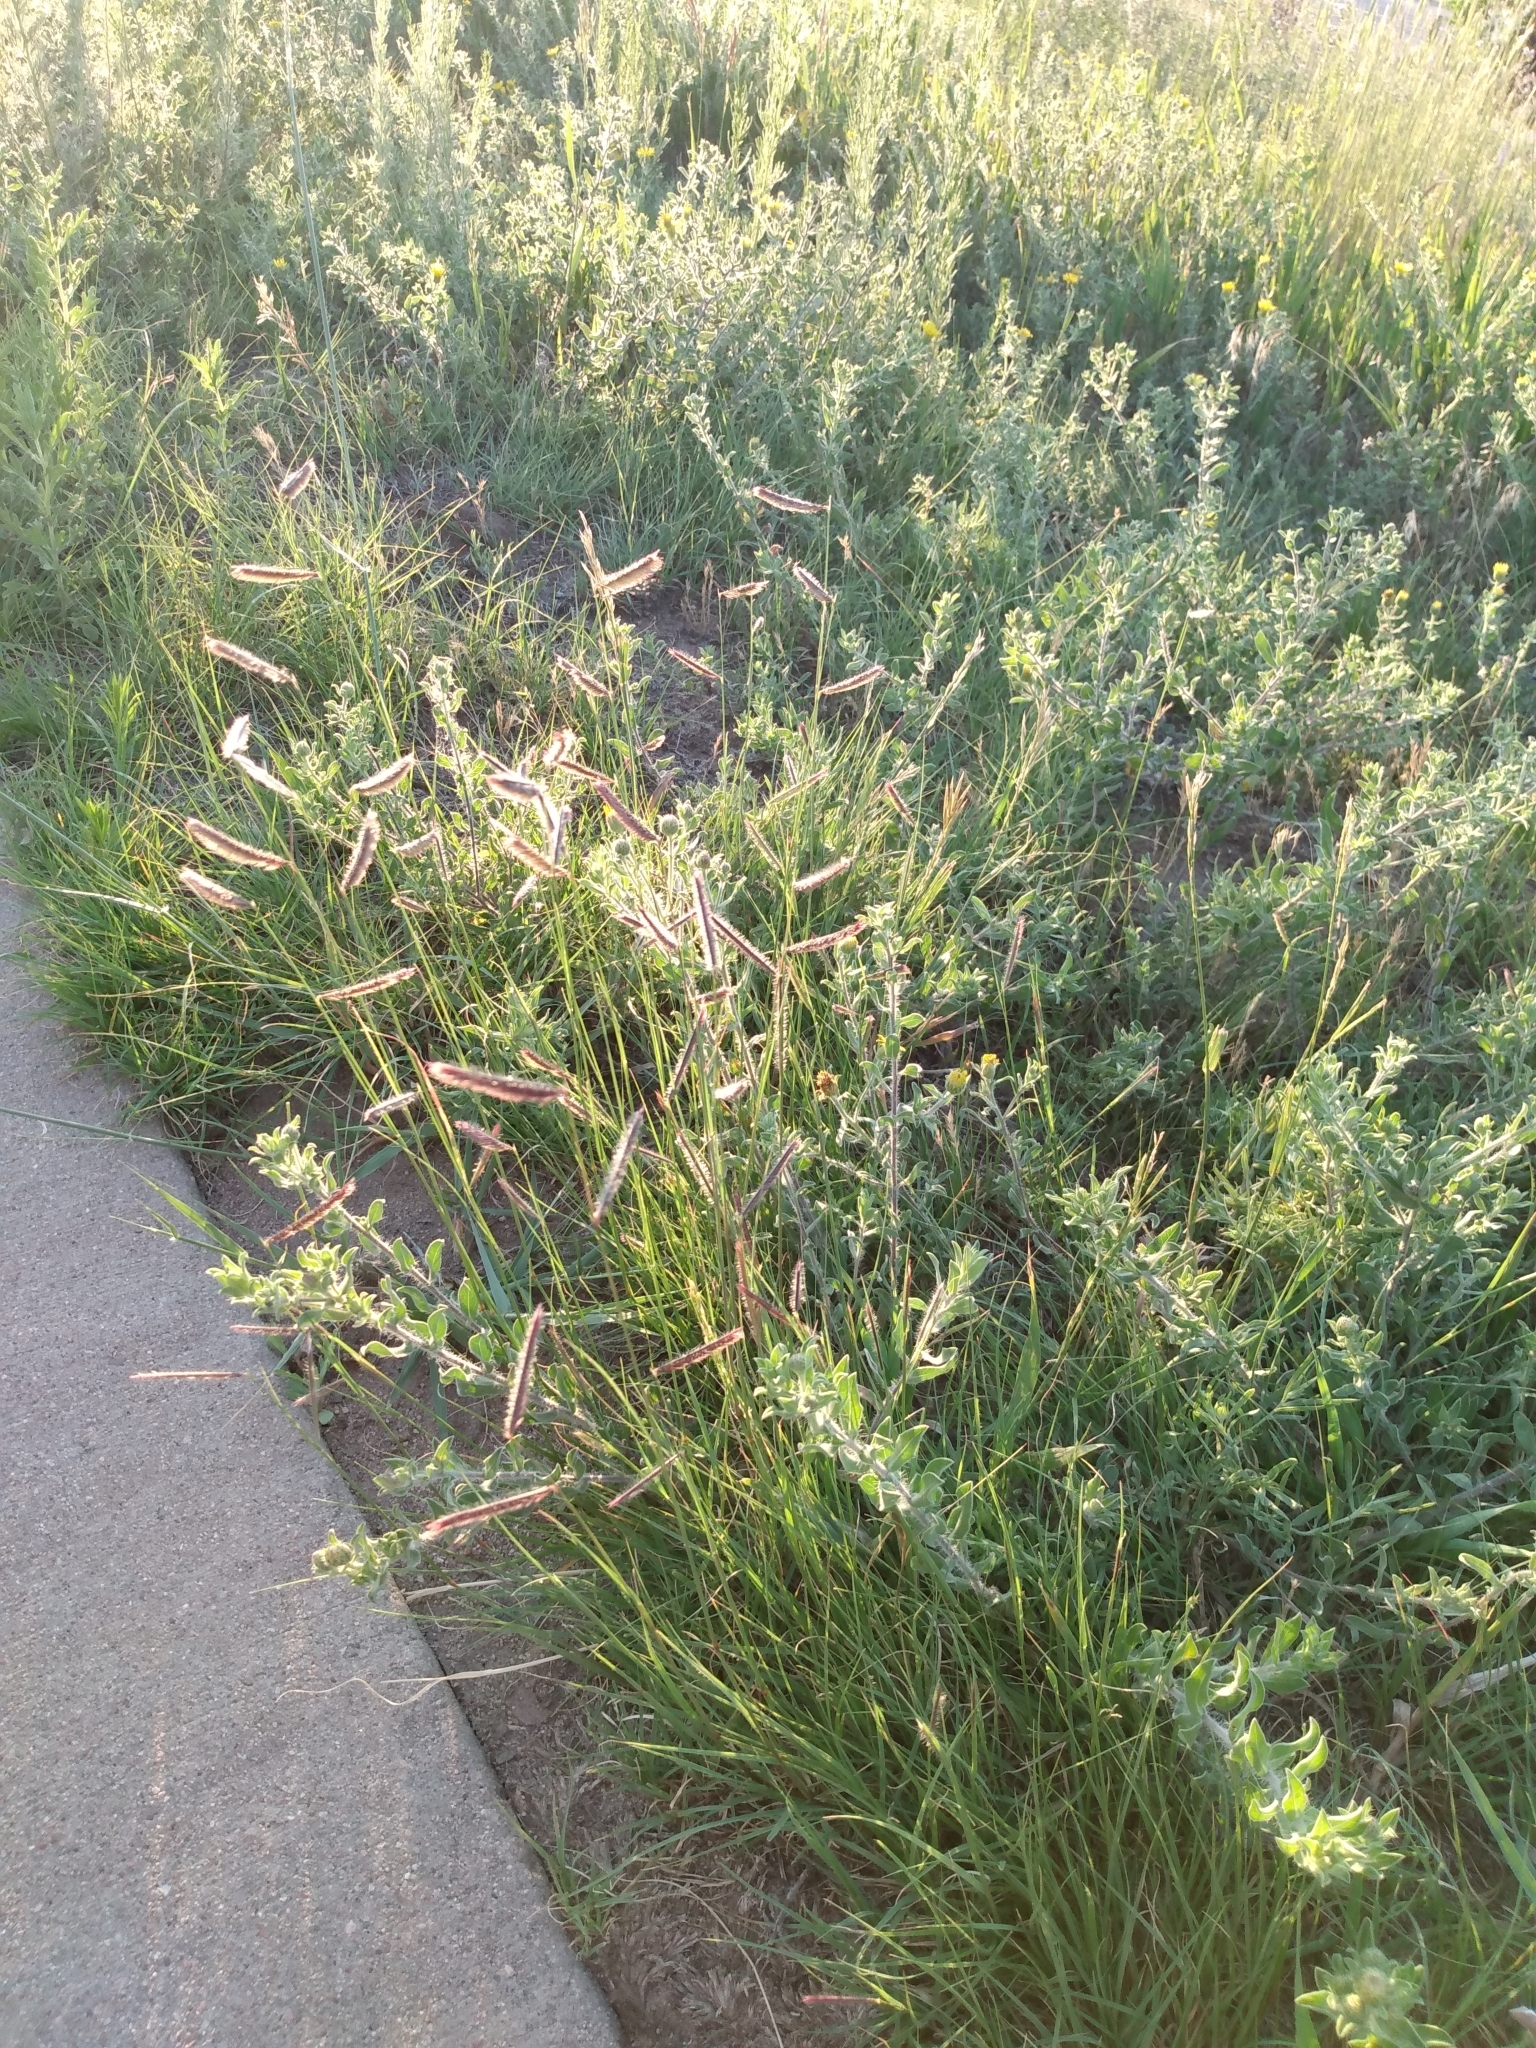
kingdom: Plantae
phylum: Tracheophyta
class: Liliopsida
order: Poales
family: Poaceae
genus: Bouteloua
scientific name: Bouteloua gracilis
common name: Blue grama
